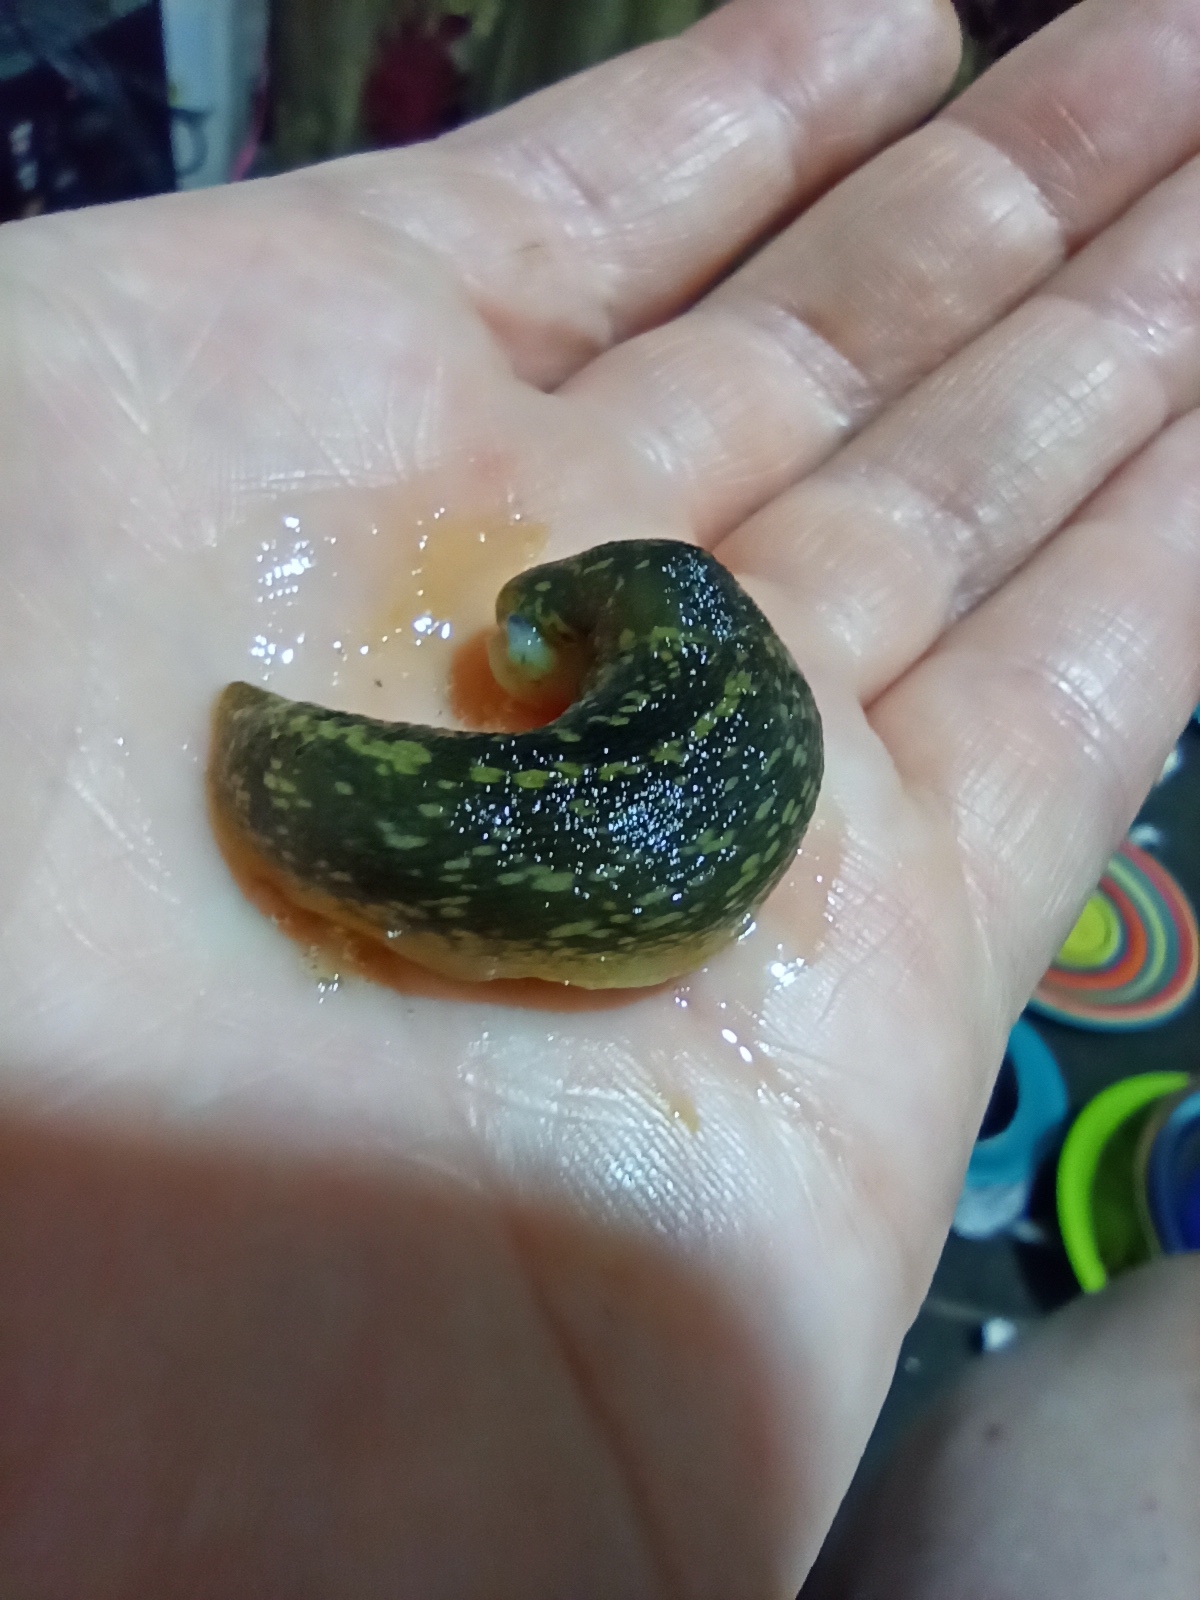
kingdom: Animalia
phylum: Mollusca
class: Gastropoda
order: Stylommatophora
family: Limacidae
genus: Limacus
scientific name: Limacus flavus
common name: Yellow gardenslug
